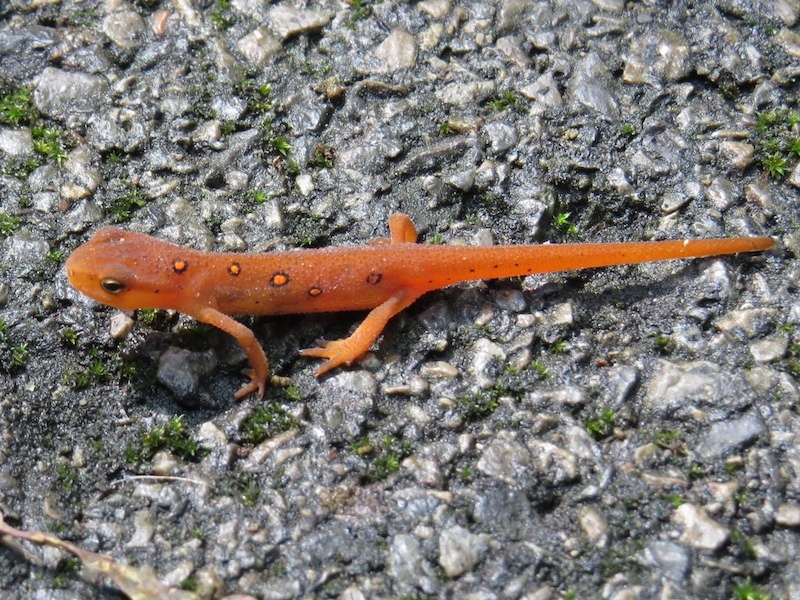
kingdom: Animalia
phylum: Chordata
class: Amphibia
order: Caudata
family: Salamandridae
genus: Notophthalmus
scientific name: Notophthalmus viridescens
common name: Eastern newt
